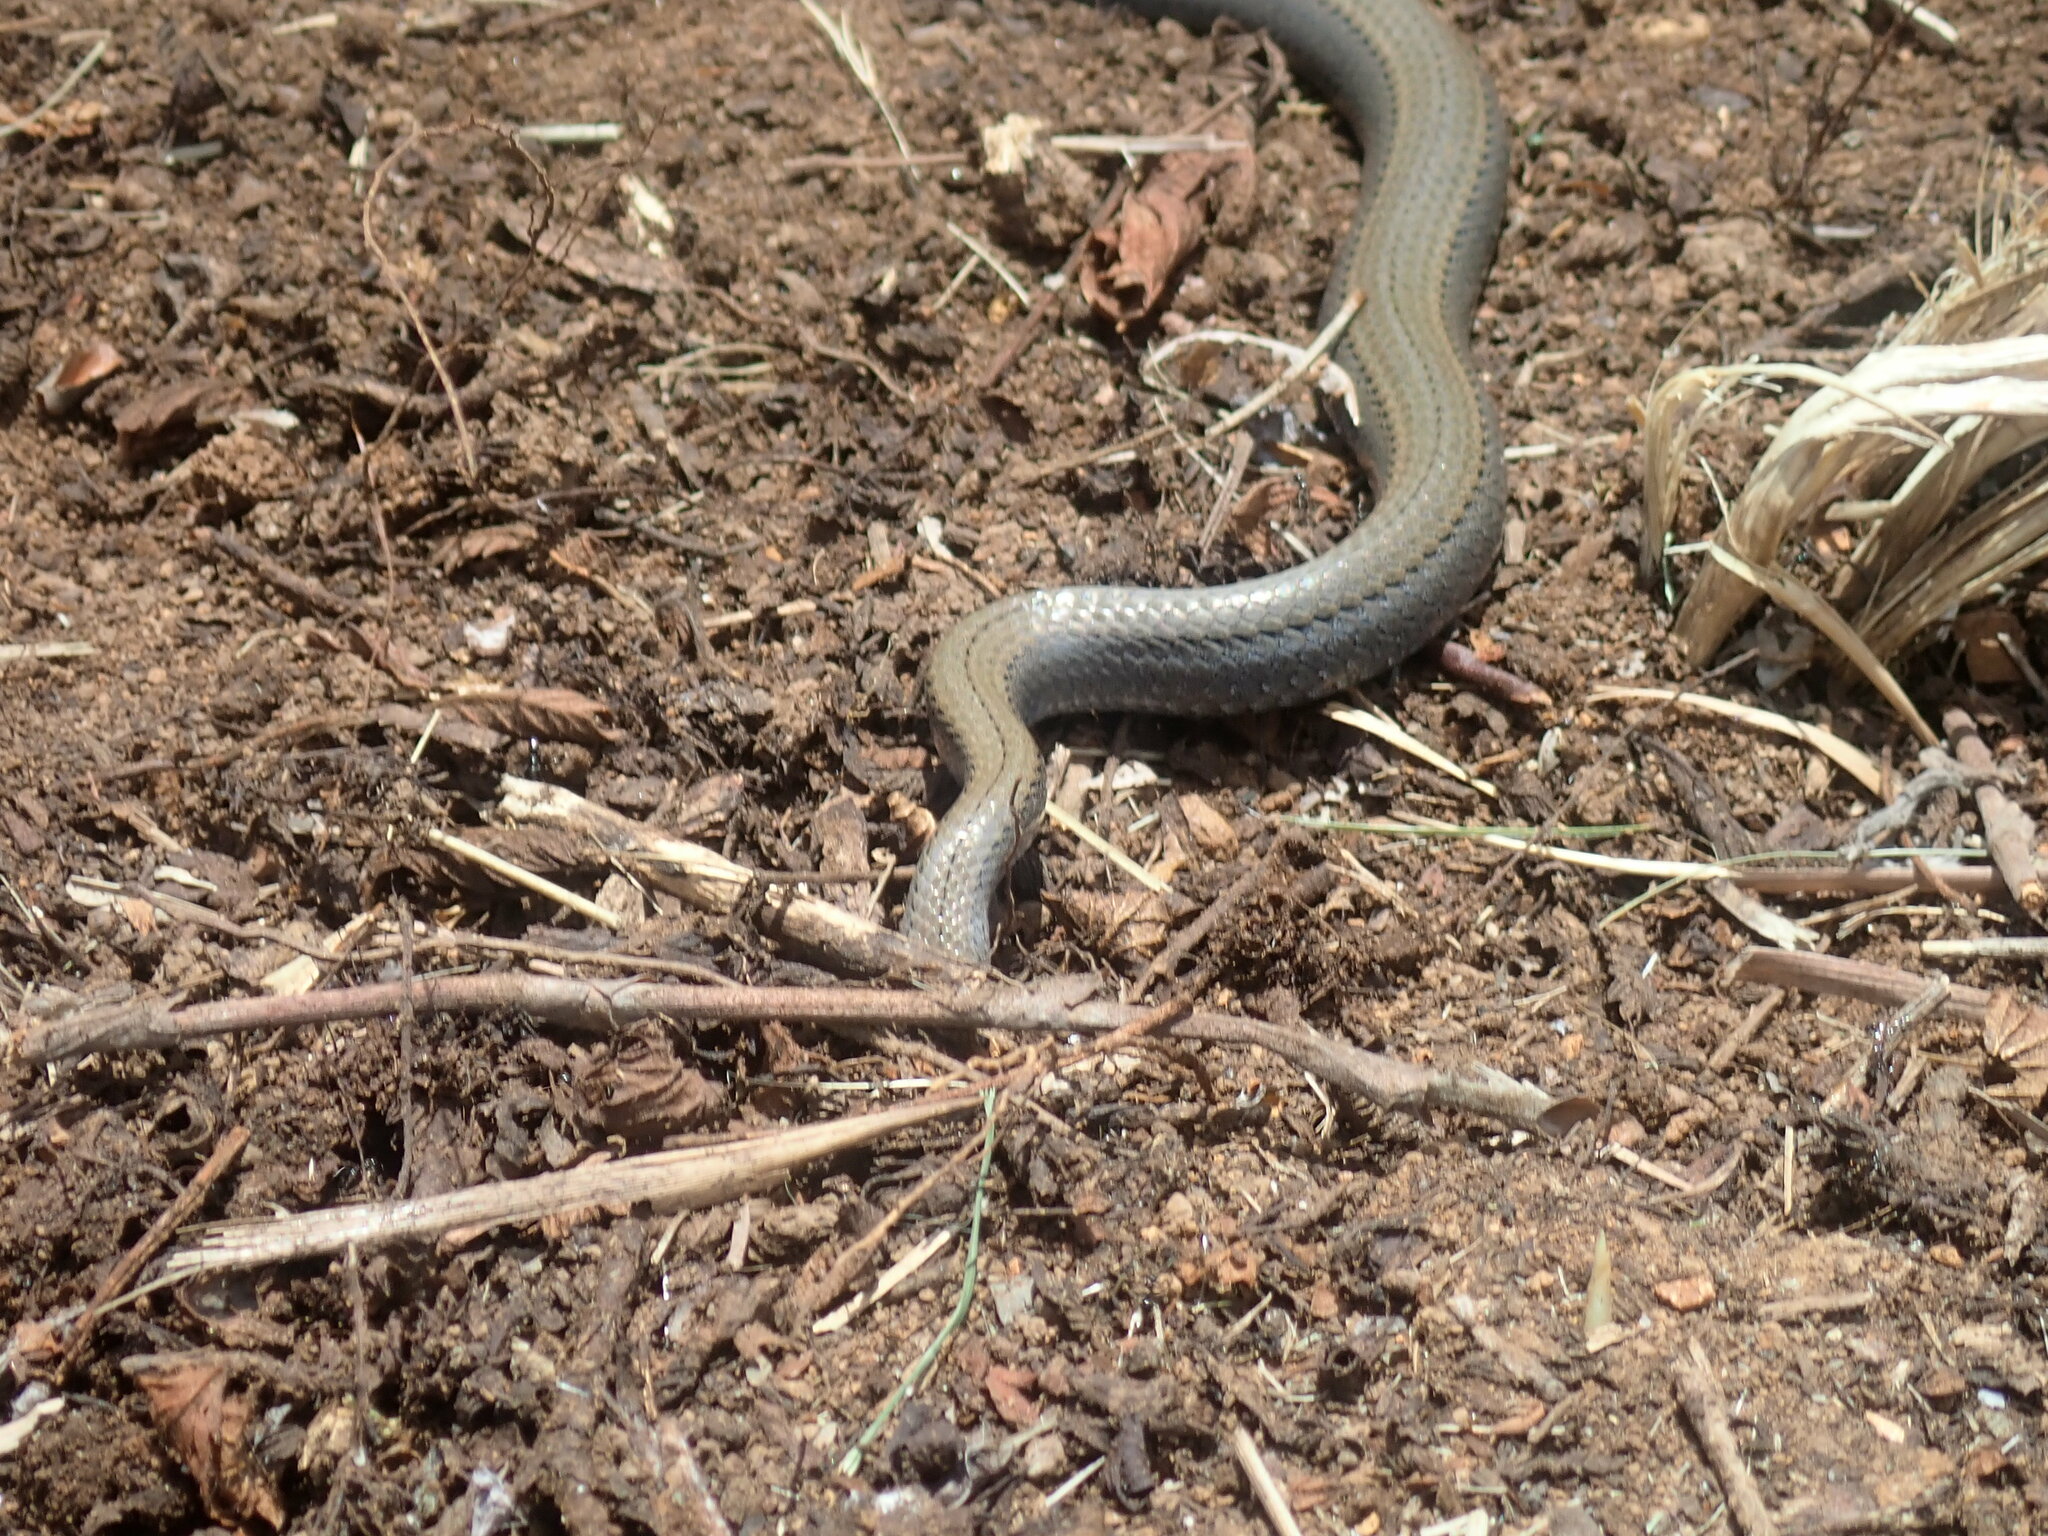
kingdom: Animalia
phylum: Chordata
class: Squamata
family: Pseudoxyrhophiidae
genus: Duberria
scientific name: Duberria lutrix
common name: Common slug eater
